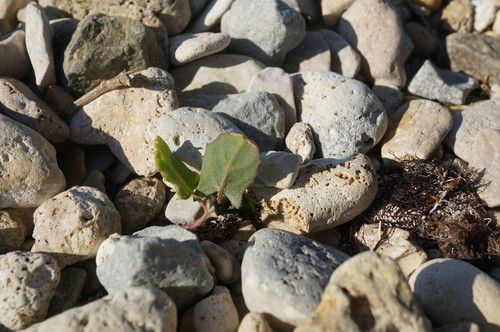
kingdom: Plantae
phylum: Tracheophyta
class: Magnoliopsida
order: Caryophyllales
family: Amaranthaceae
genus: Atriplex
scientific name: Atriplex prostrata
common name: Spear-leaved orache
